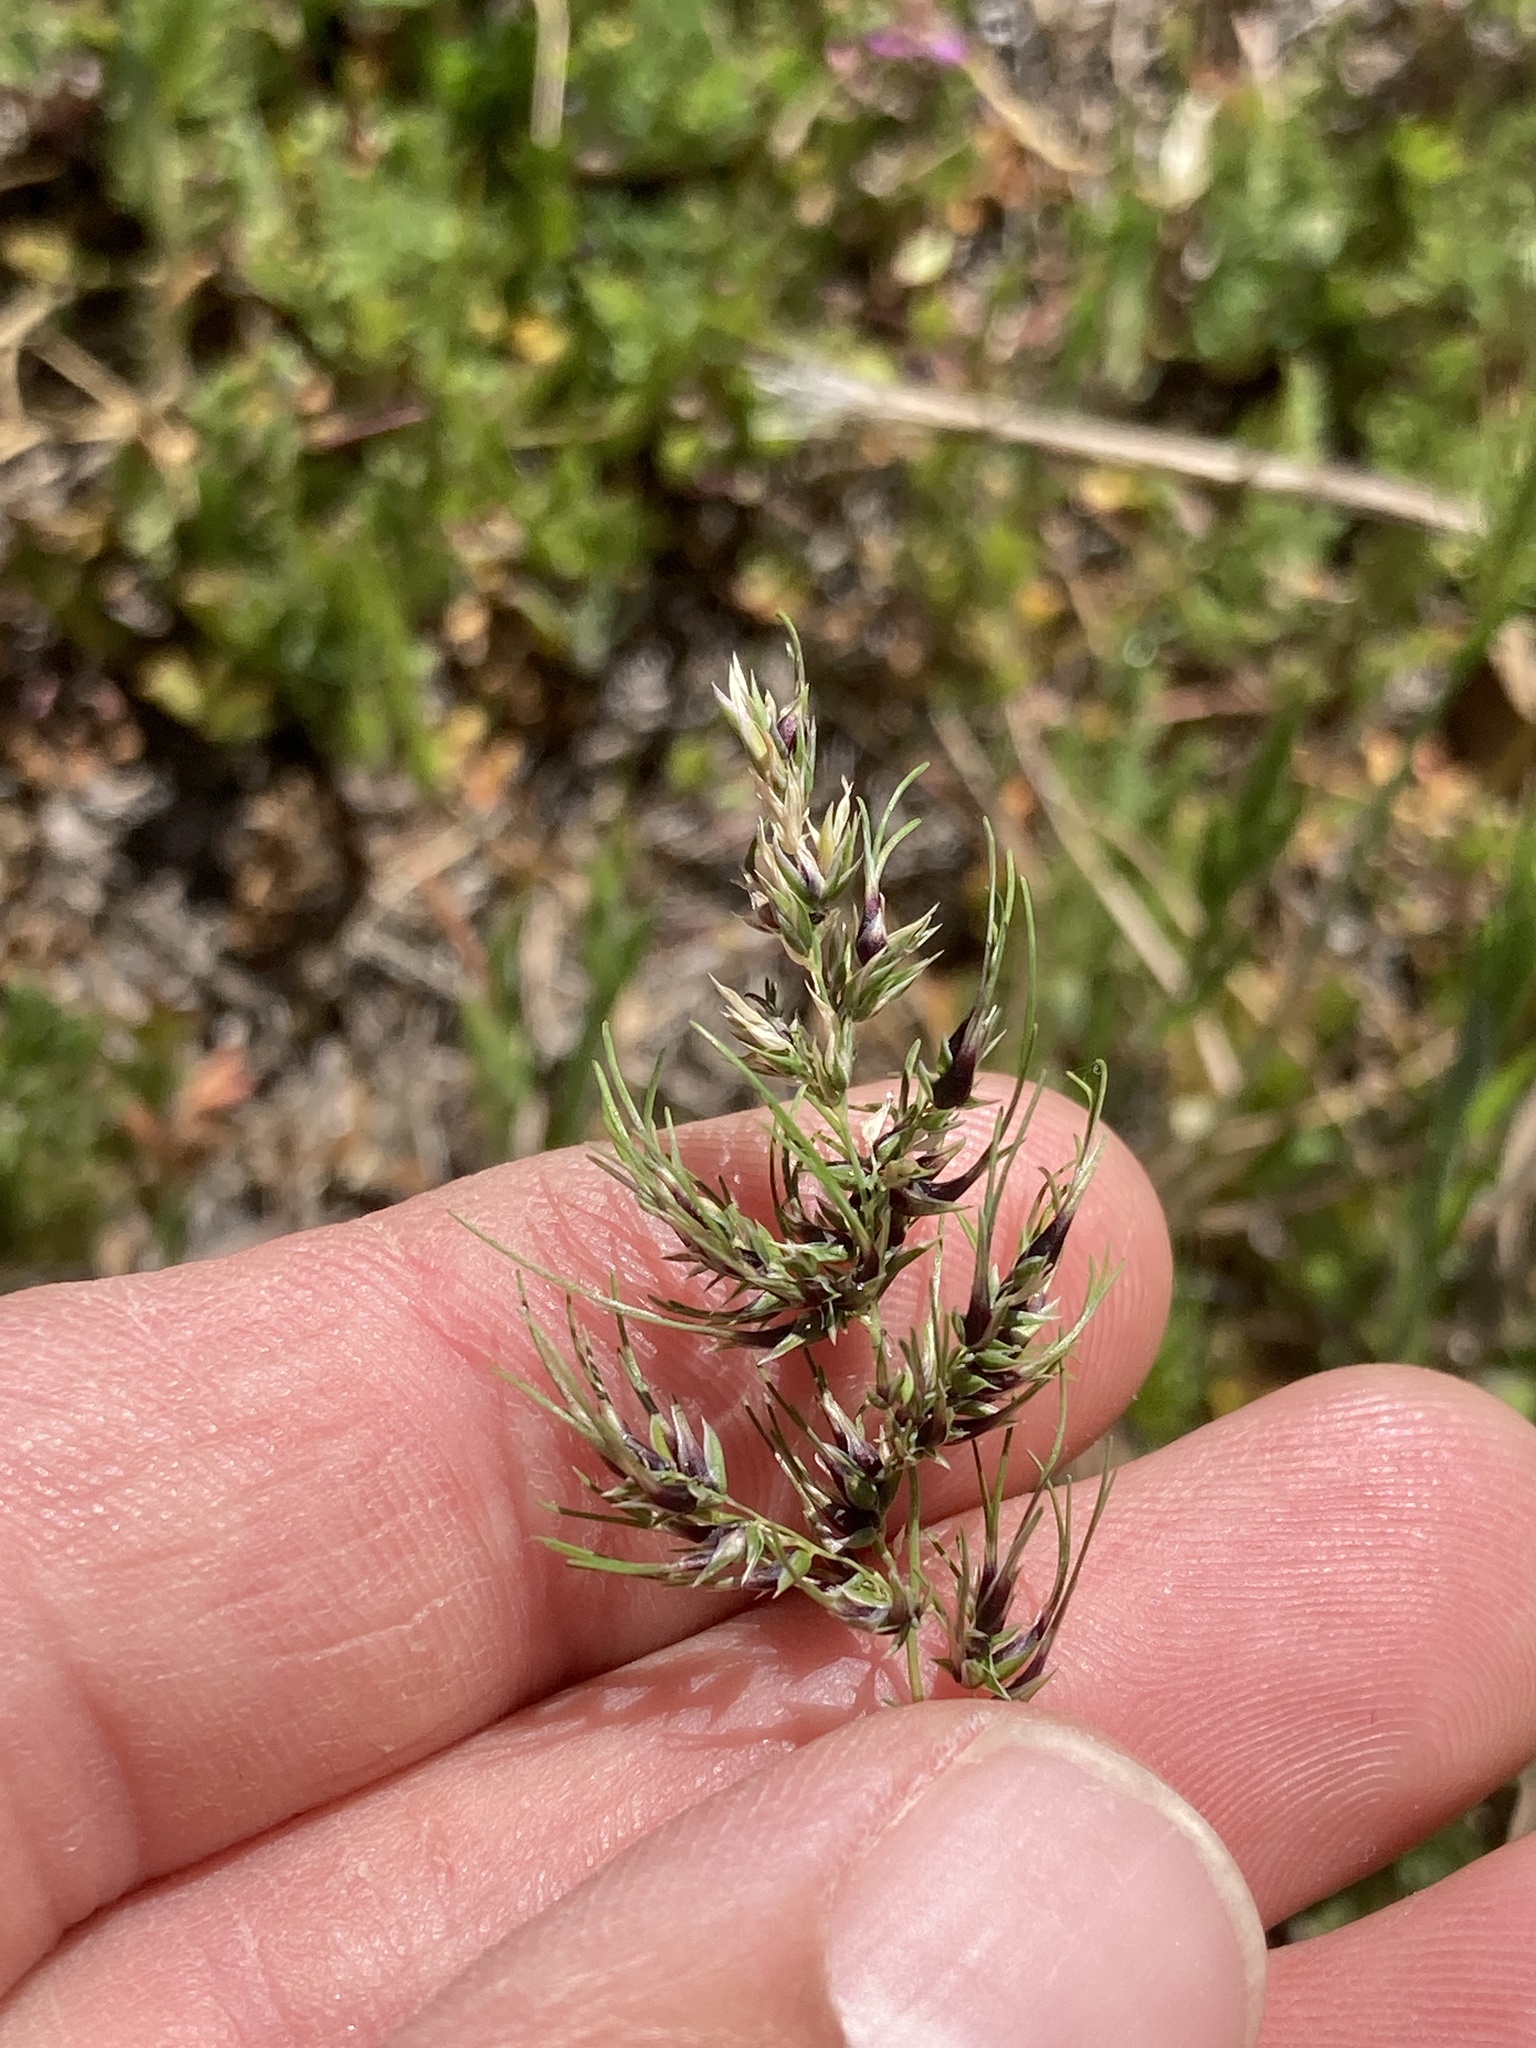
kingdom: Plantae
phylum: Tracheophyta
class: Liliopsida
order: Poales
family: Poaceae
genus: Poa
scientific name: Poa bulbosa
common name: Bulbous bluegrass
